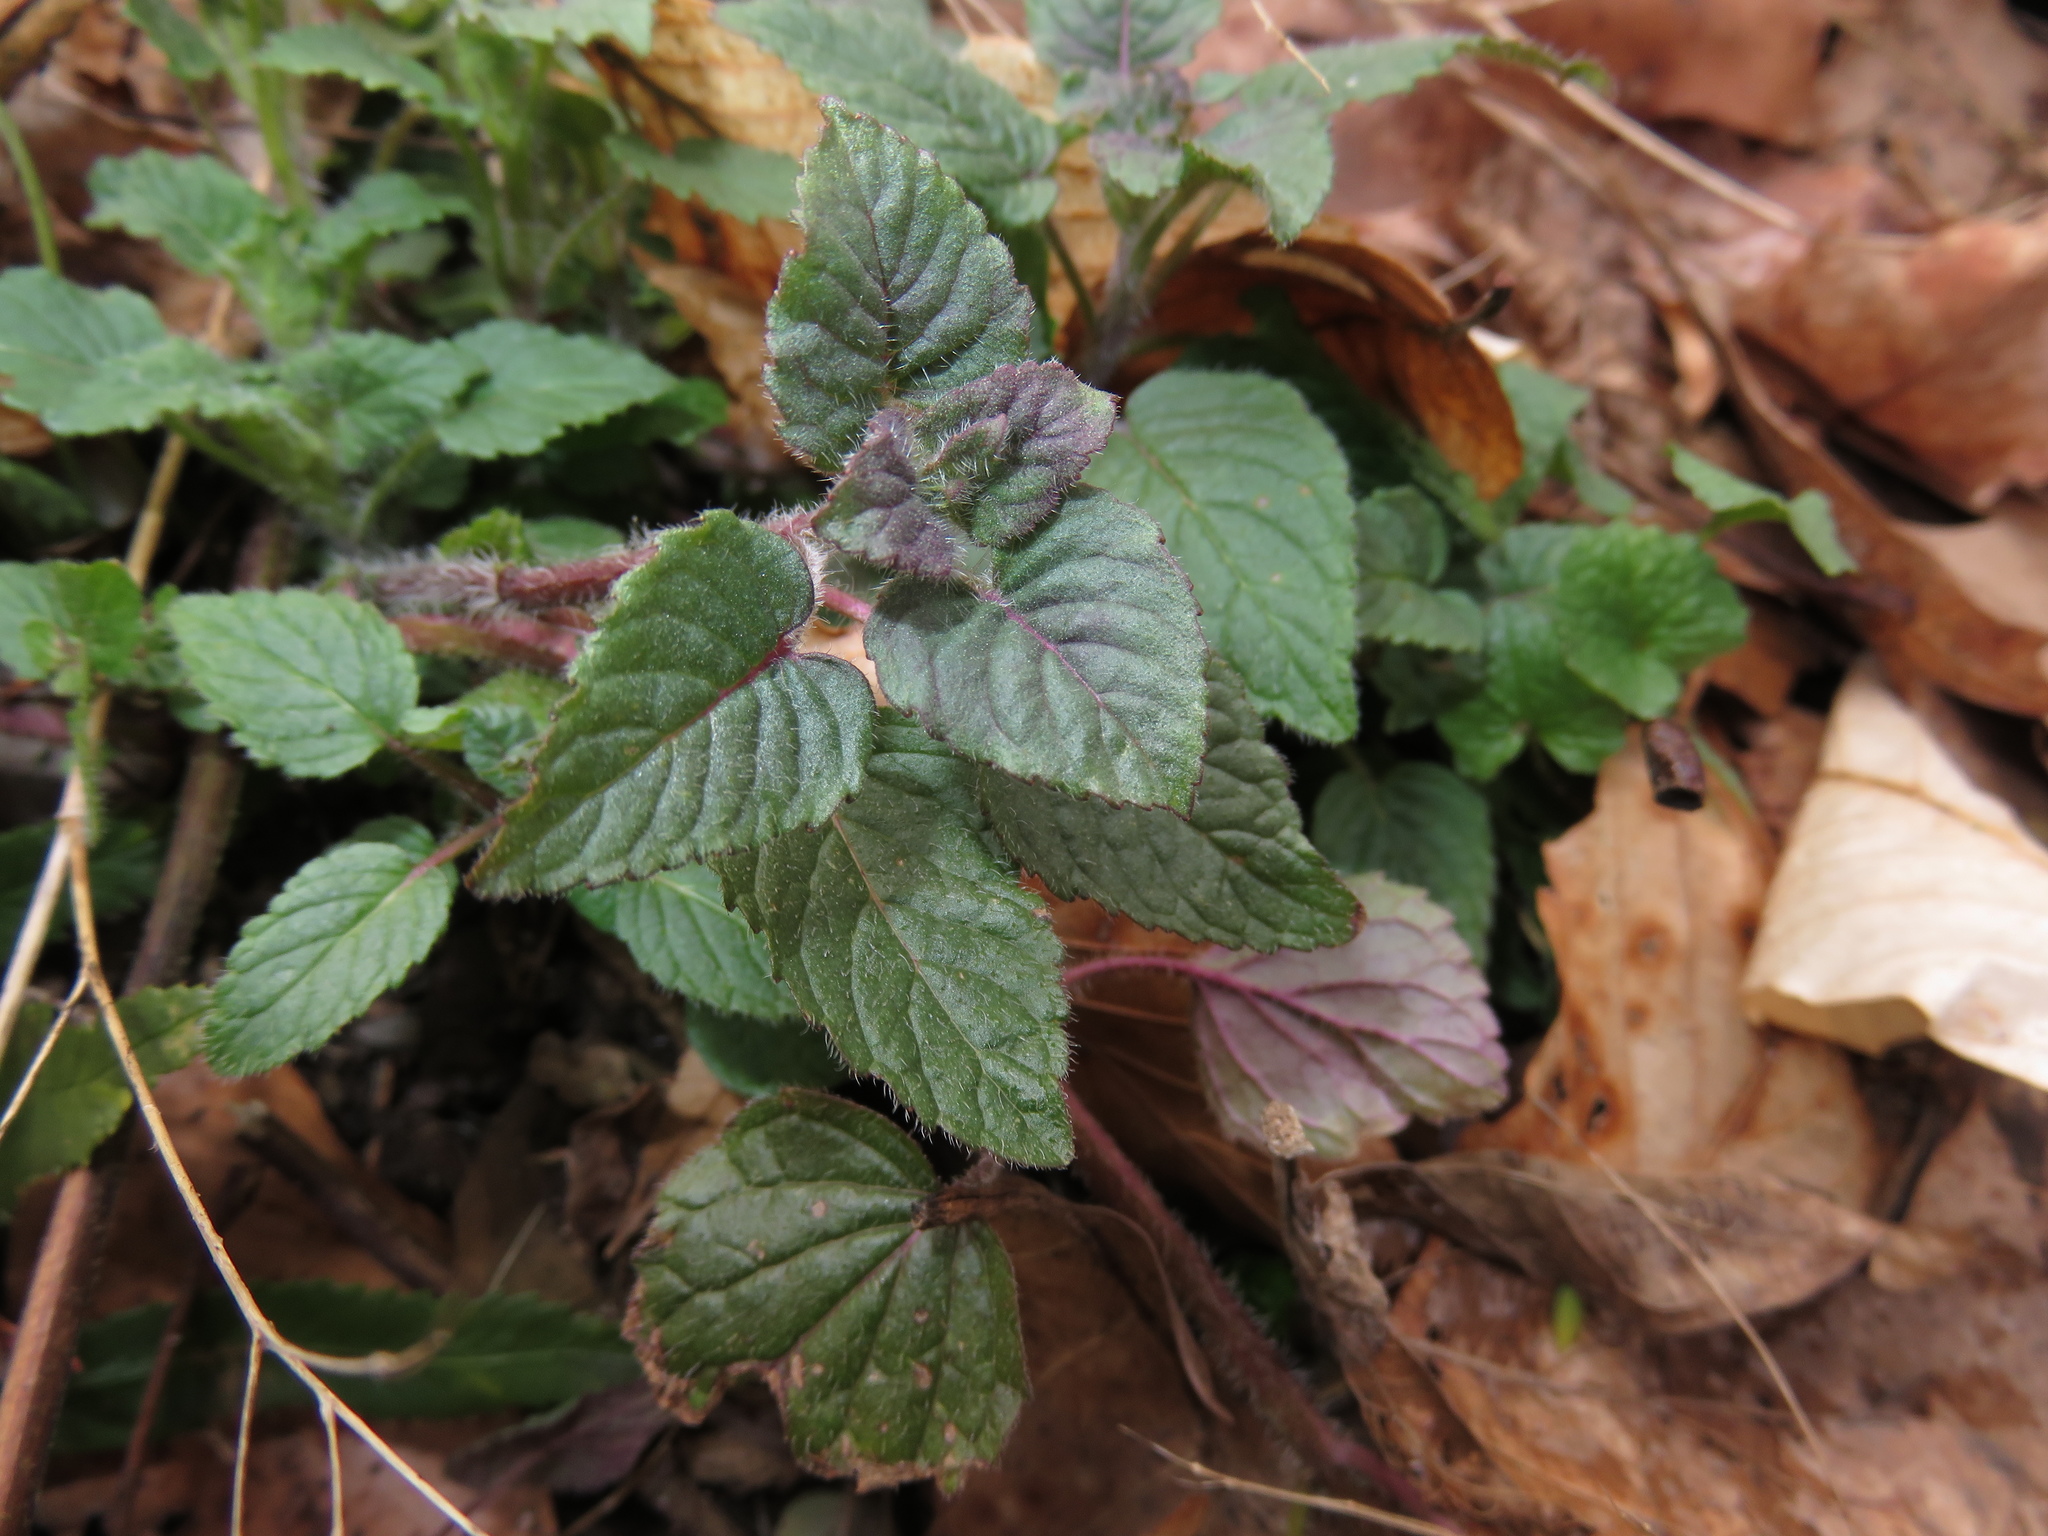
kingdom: Plantae
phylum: Tracheophyta
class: Magnoliopsida
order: Lamiales
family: Lamiaceae
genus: Blephilia
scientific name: Blephilia hirsuta
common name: Hairy blephilia
